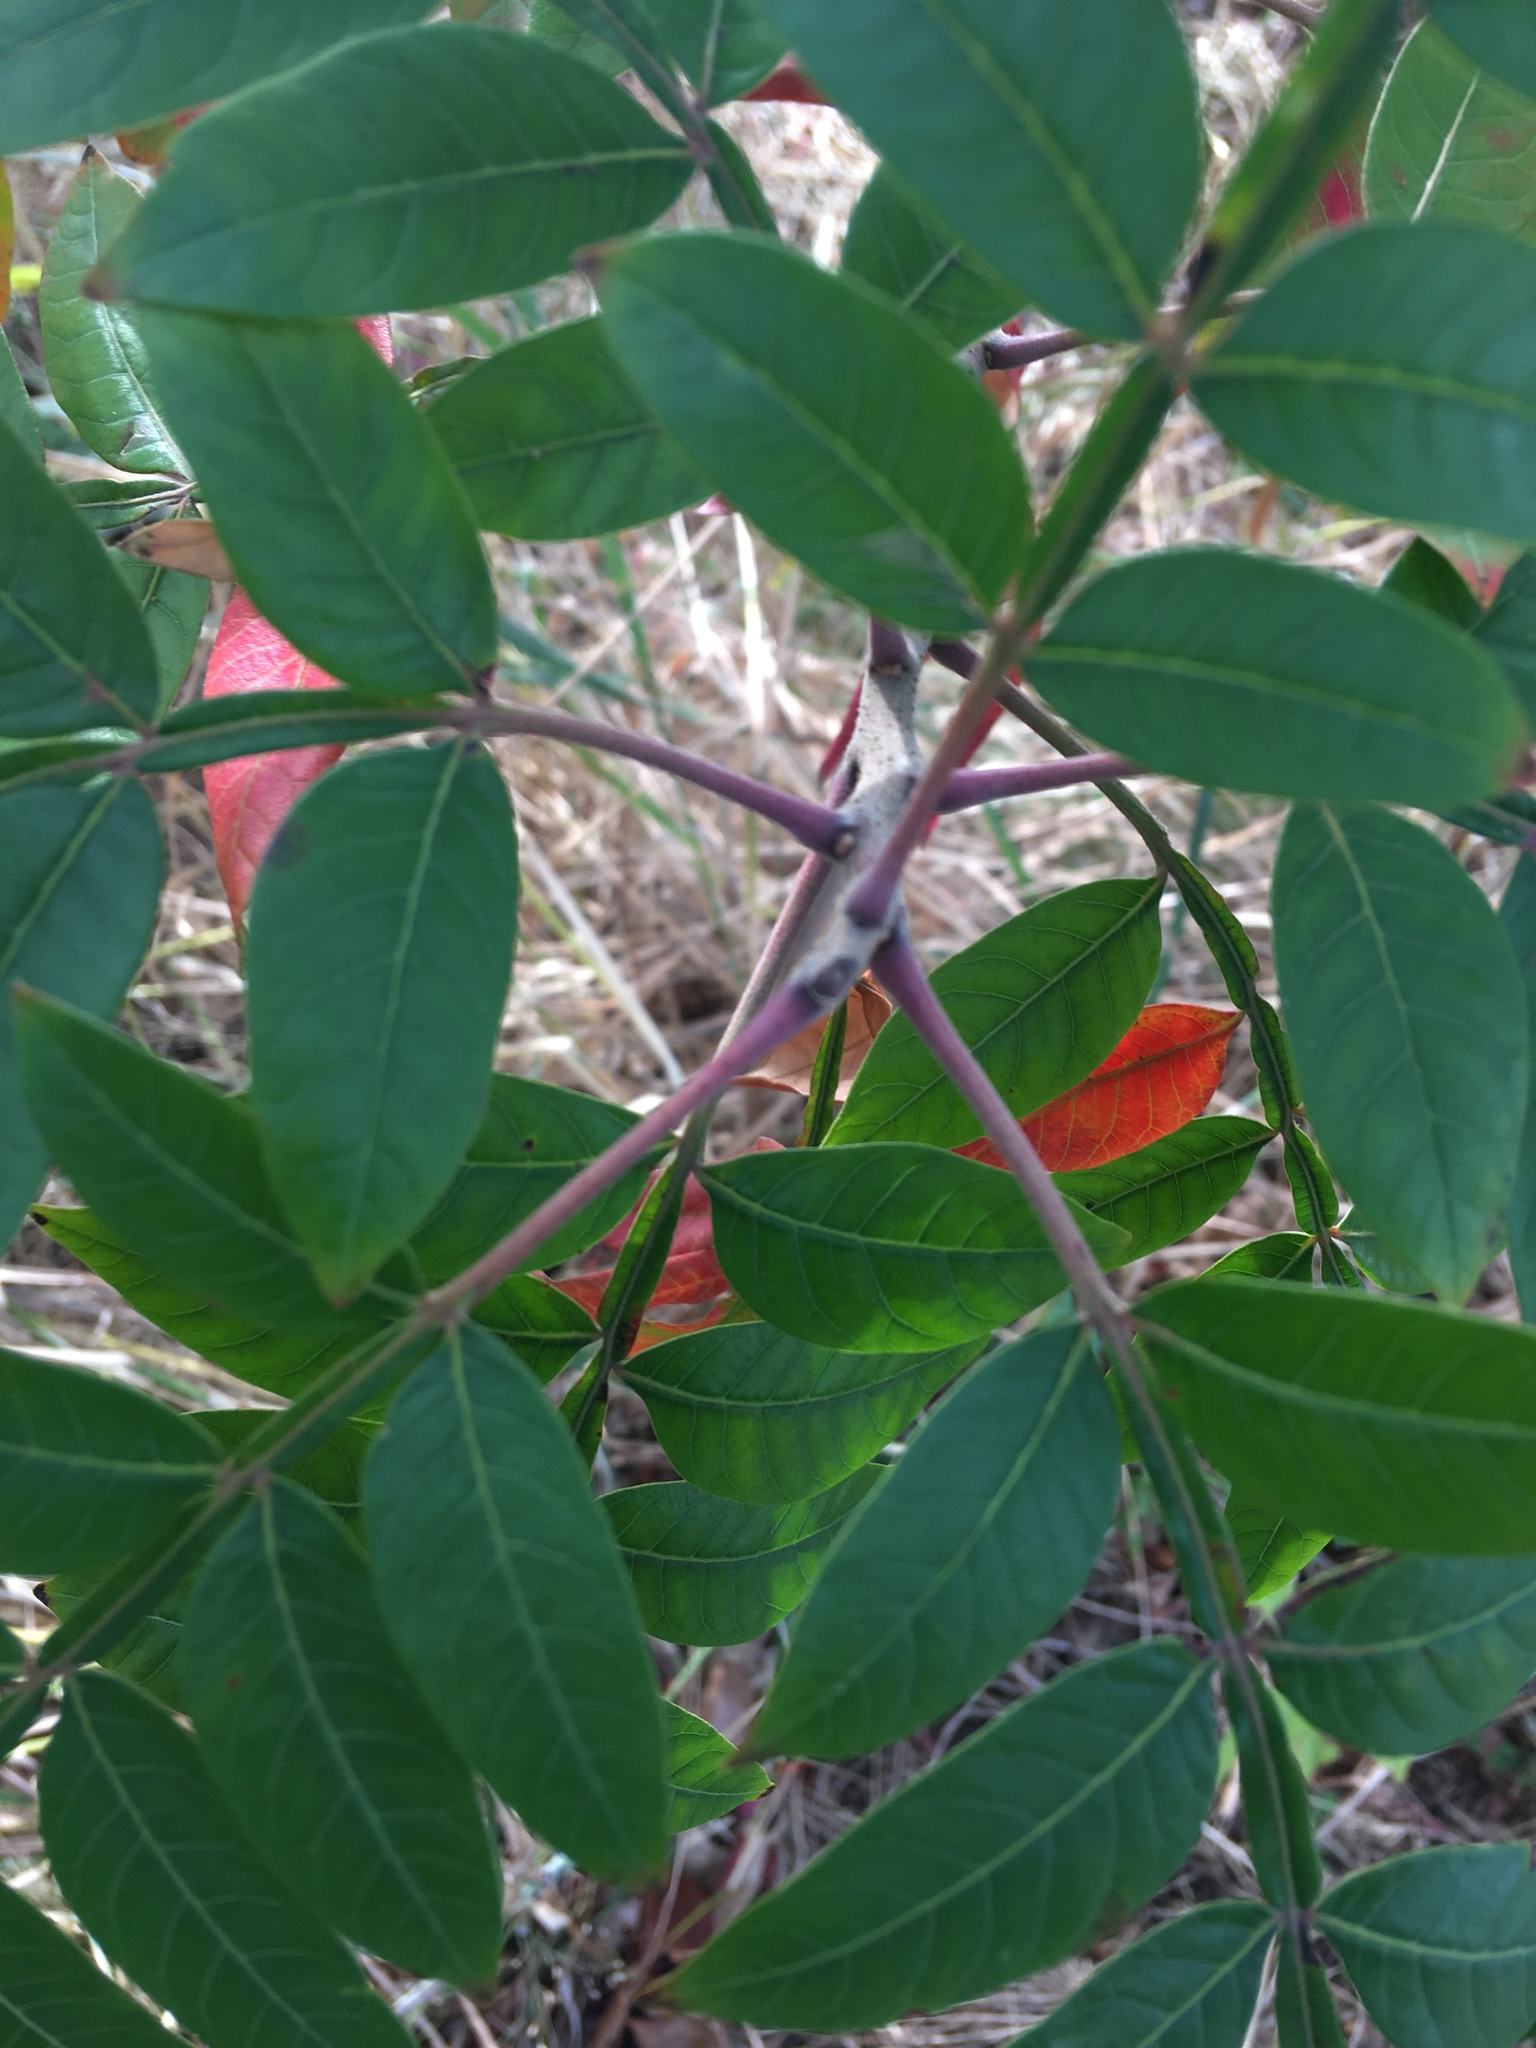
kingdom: Plantae
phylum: Tracheophyta
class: Magnoliopsida
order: Sapindales
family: Anacardiaceae
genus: Rhus
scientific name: Rhus copallina
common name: Shining sumac
